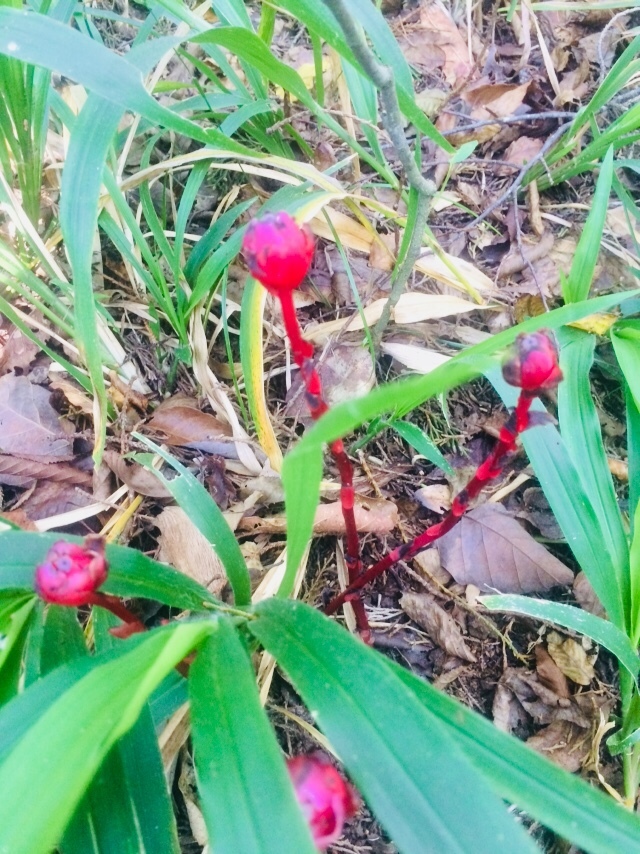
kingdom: Plantae
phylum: Tracheophyta
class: Magnoliopsida
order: Ericales
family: Ericaceae
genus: Monotropa
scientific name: Monotropa coccinea
